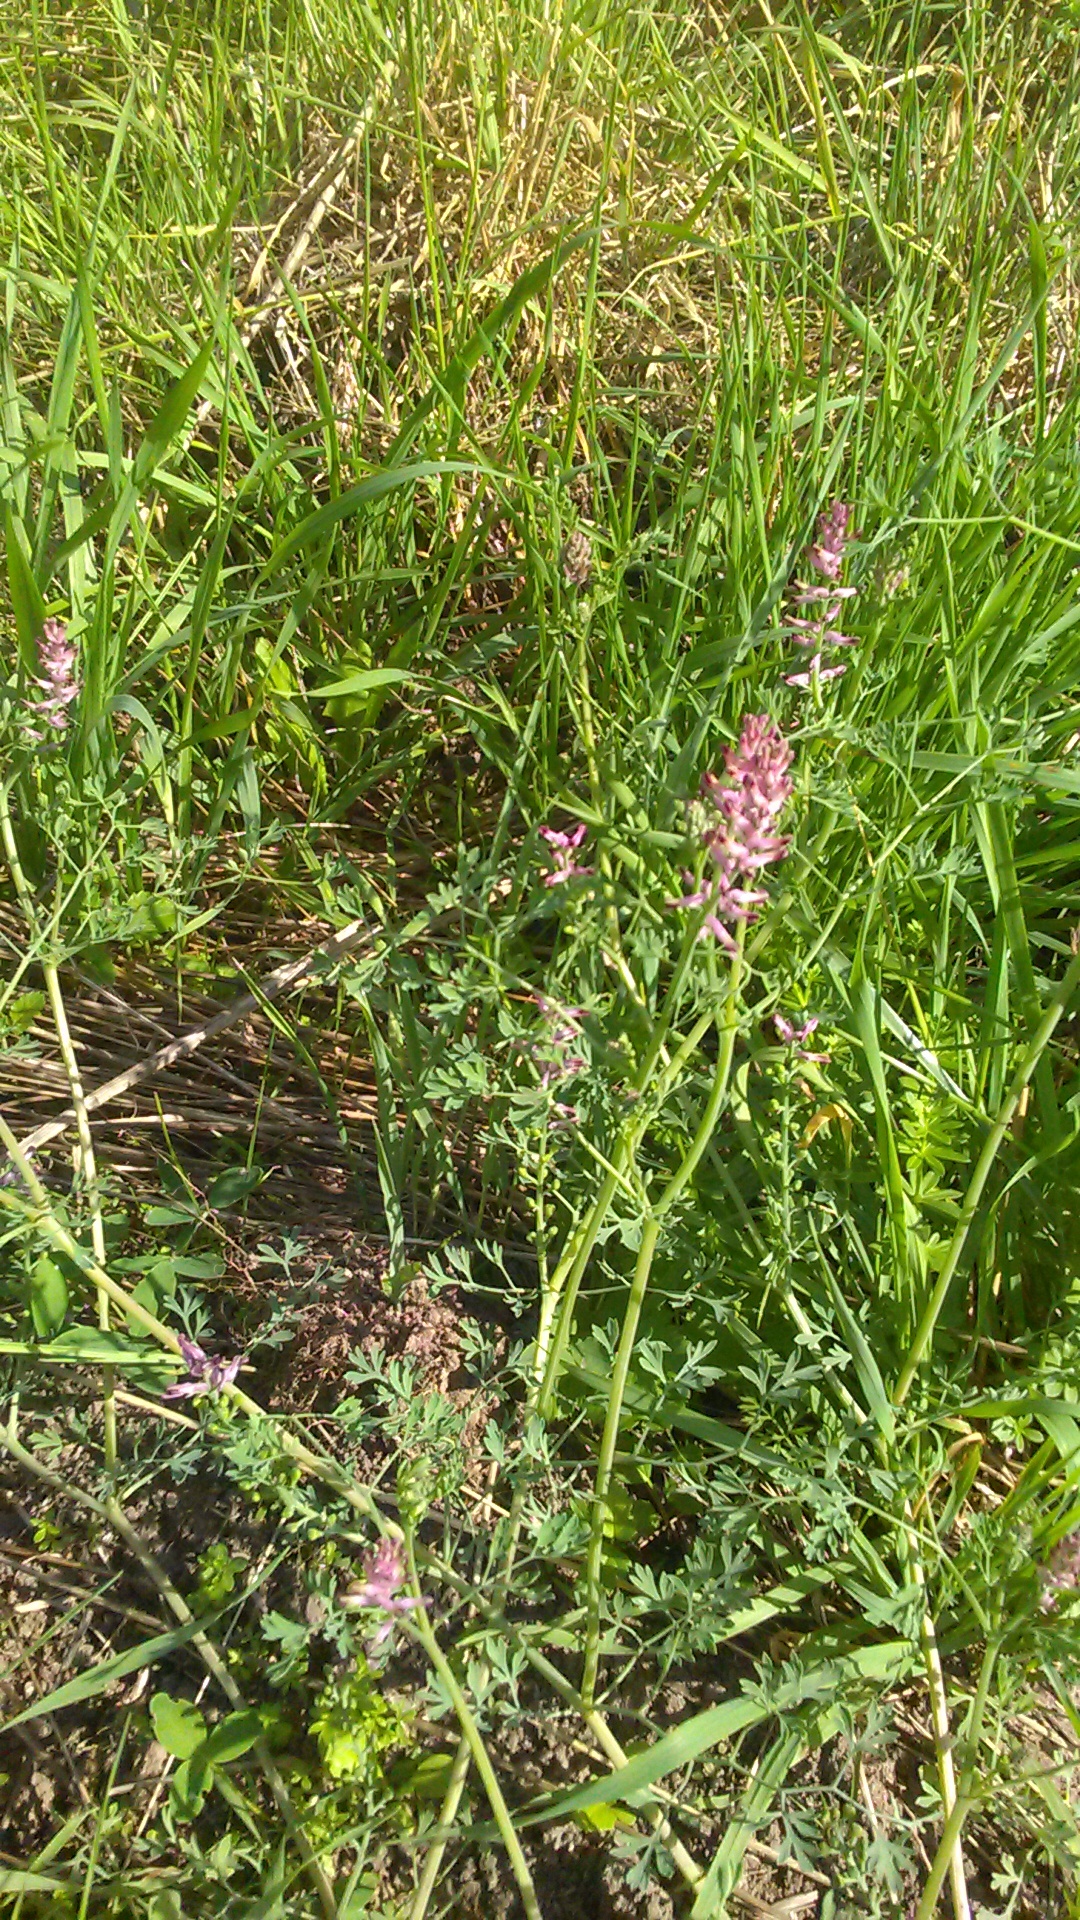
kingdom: Plantae
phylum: Tracheophyta
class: Magnoliopsida
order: Ranunculales
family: Papaveraceae
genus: Fumaria
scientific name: Fumaria officinalis
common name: Common fumitory
